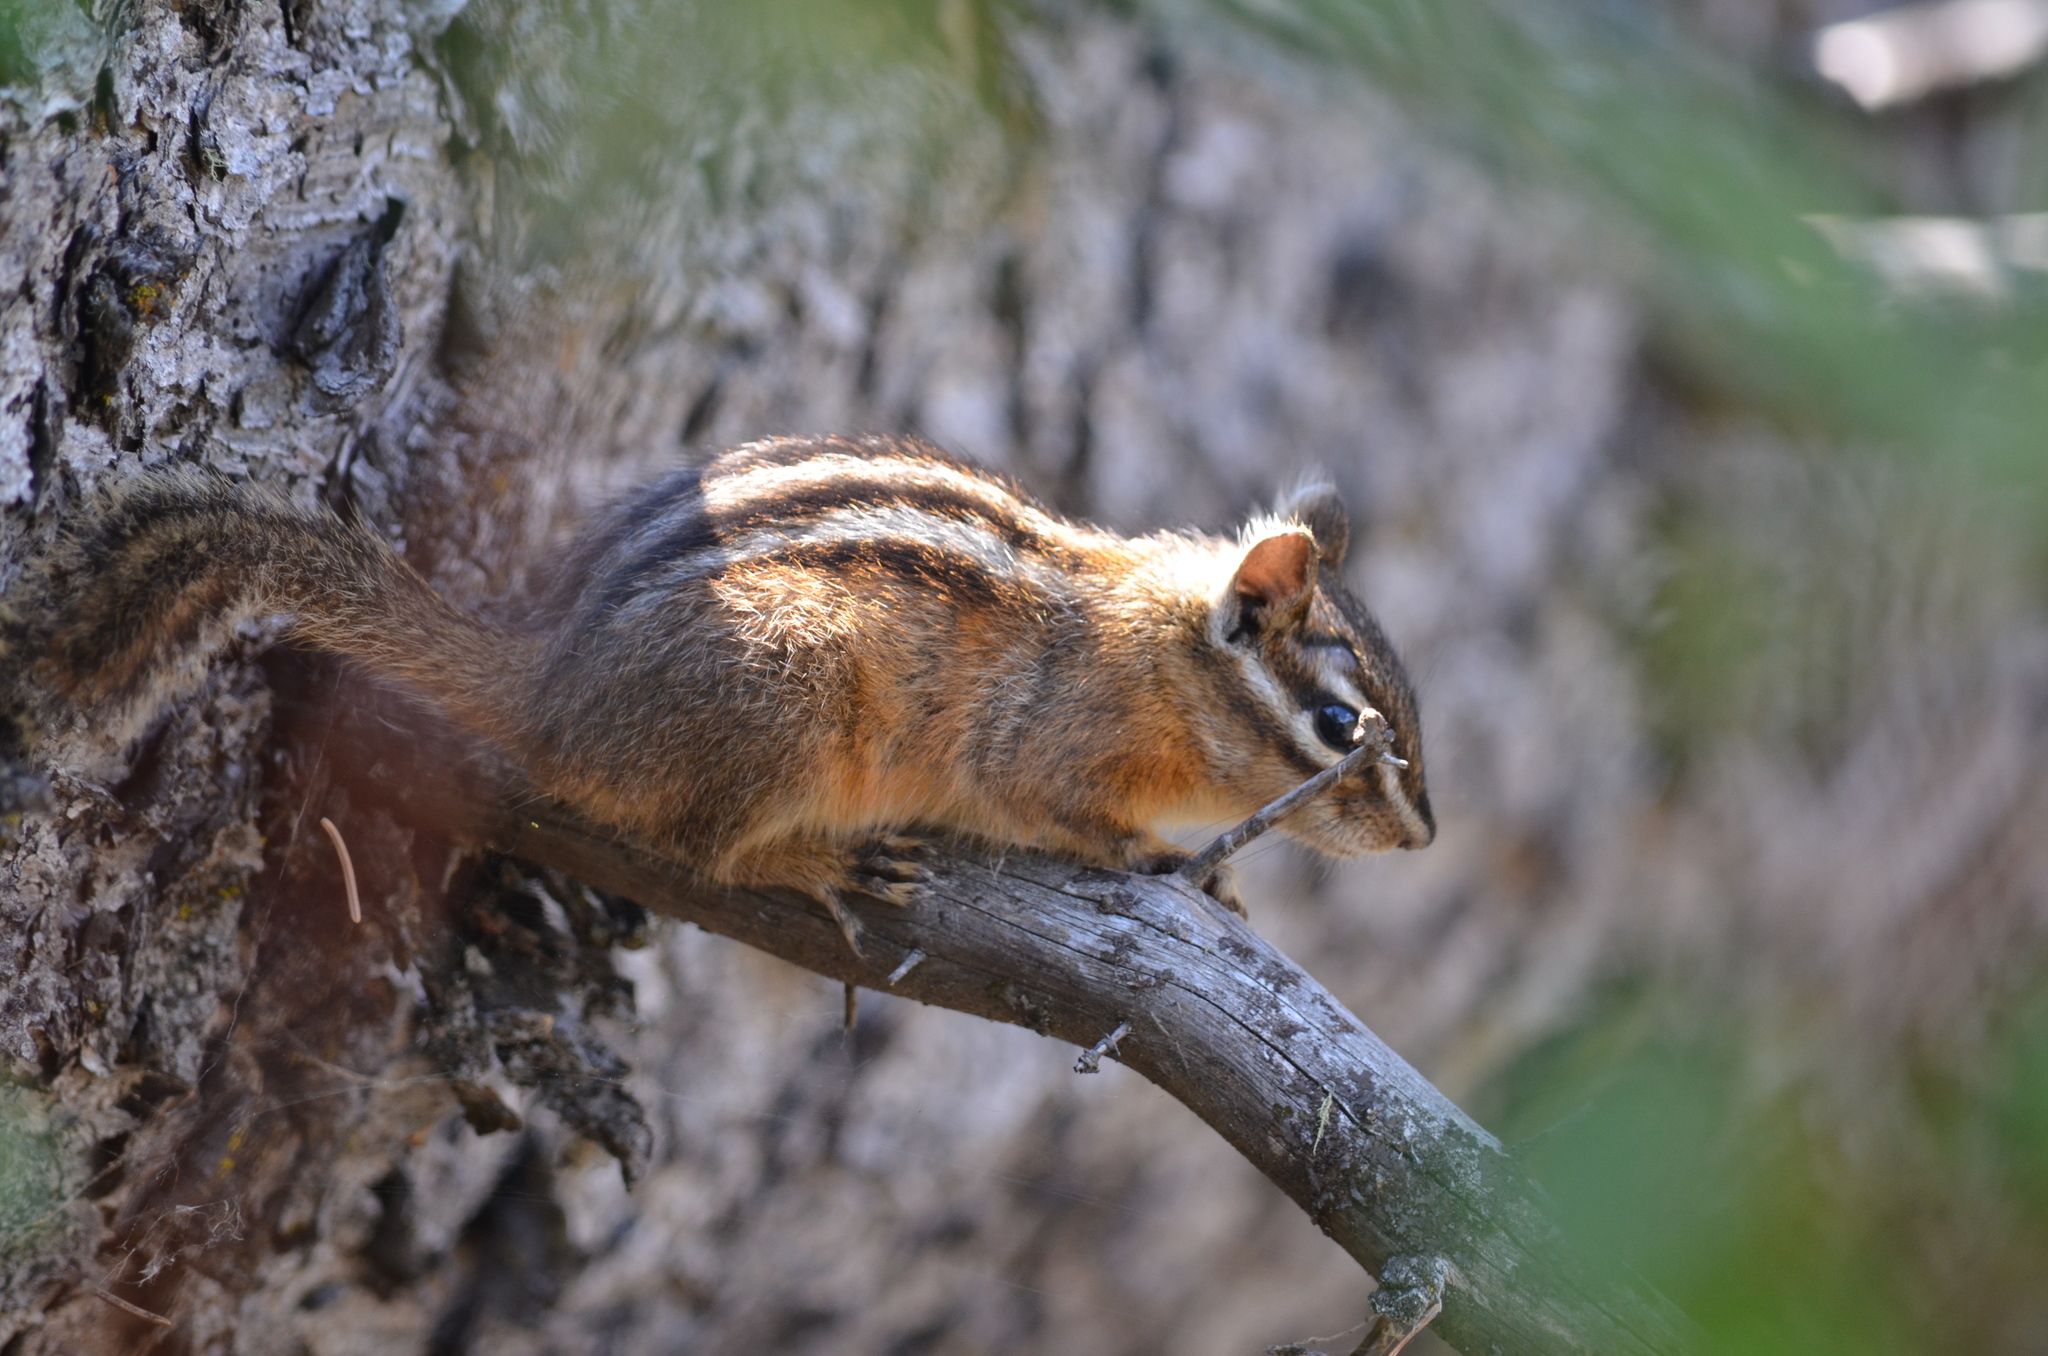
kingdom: Animalia
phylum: Chordata
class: Mammalia
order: Rodentia
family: Sciuridae
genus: Tamias
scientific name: Tamias amoenus
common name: Yellow-pine chipmunk
